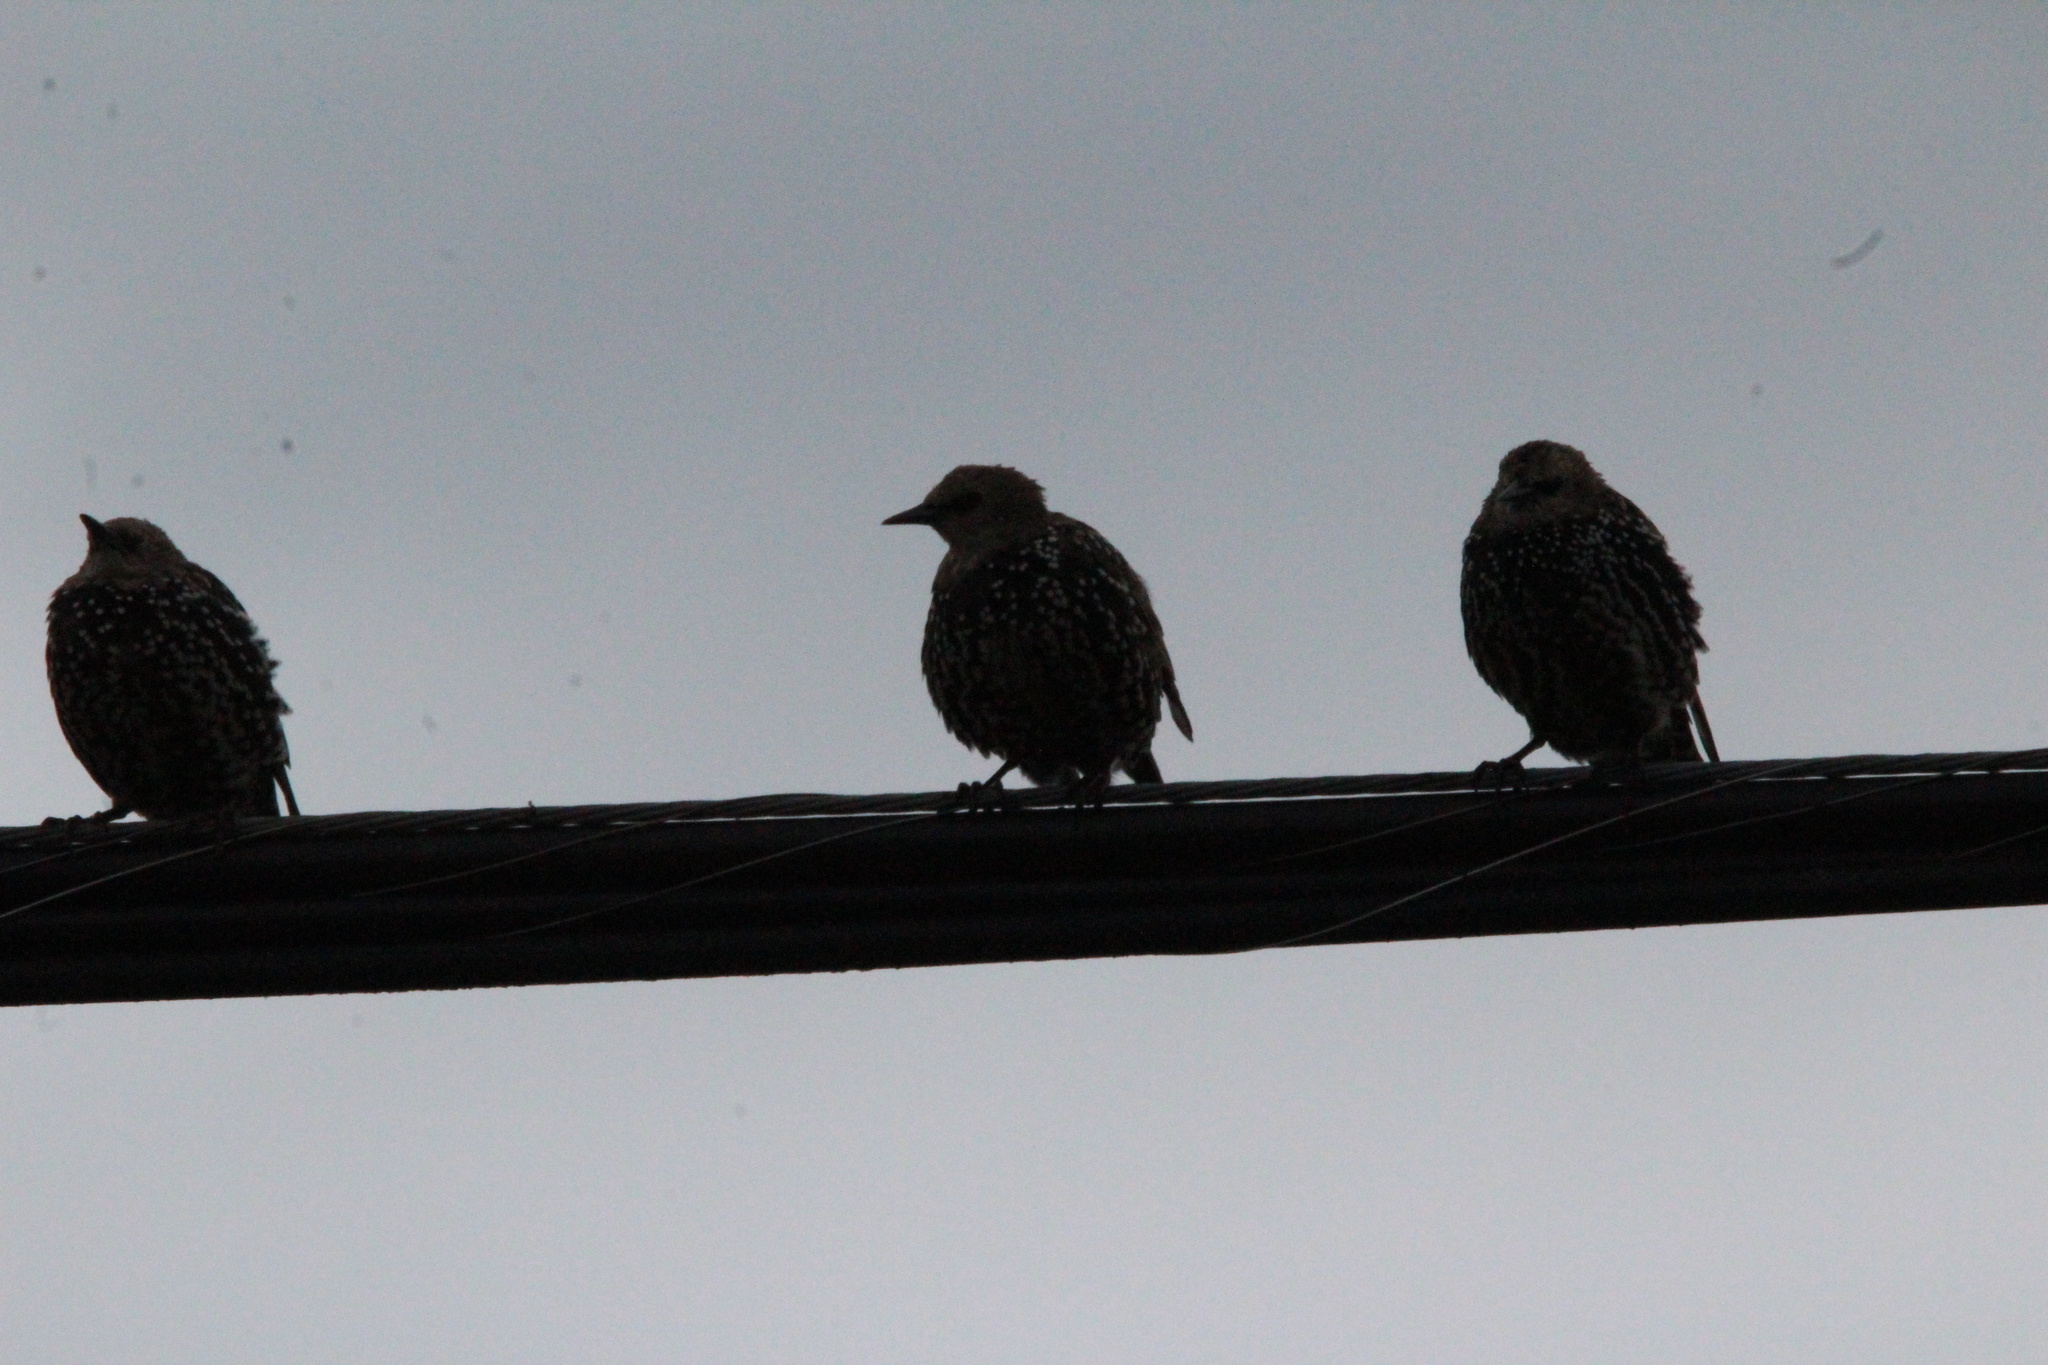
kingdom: Animalia
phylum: Chordata
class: Aves
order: Passeriformes
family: Sturnidae
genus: Sturnus
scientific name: Sturnus vulgaris
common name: Common starling
